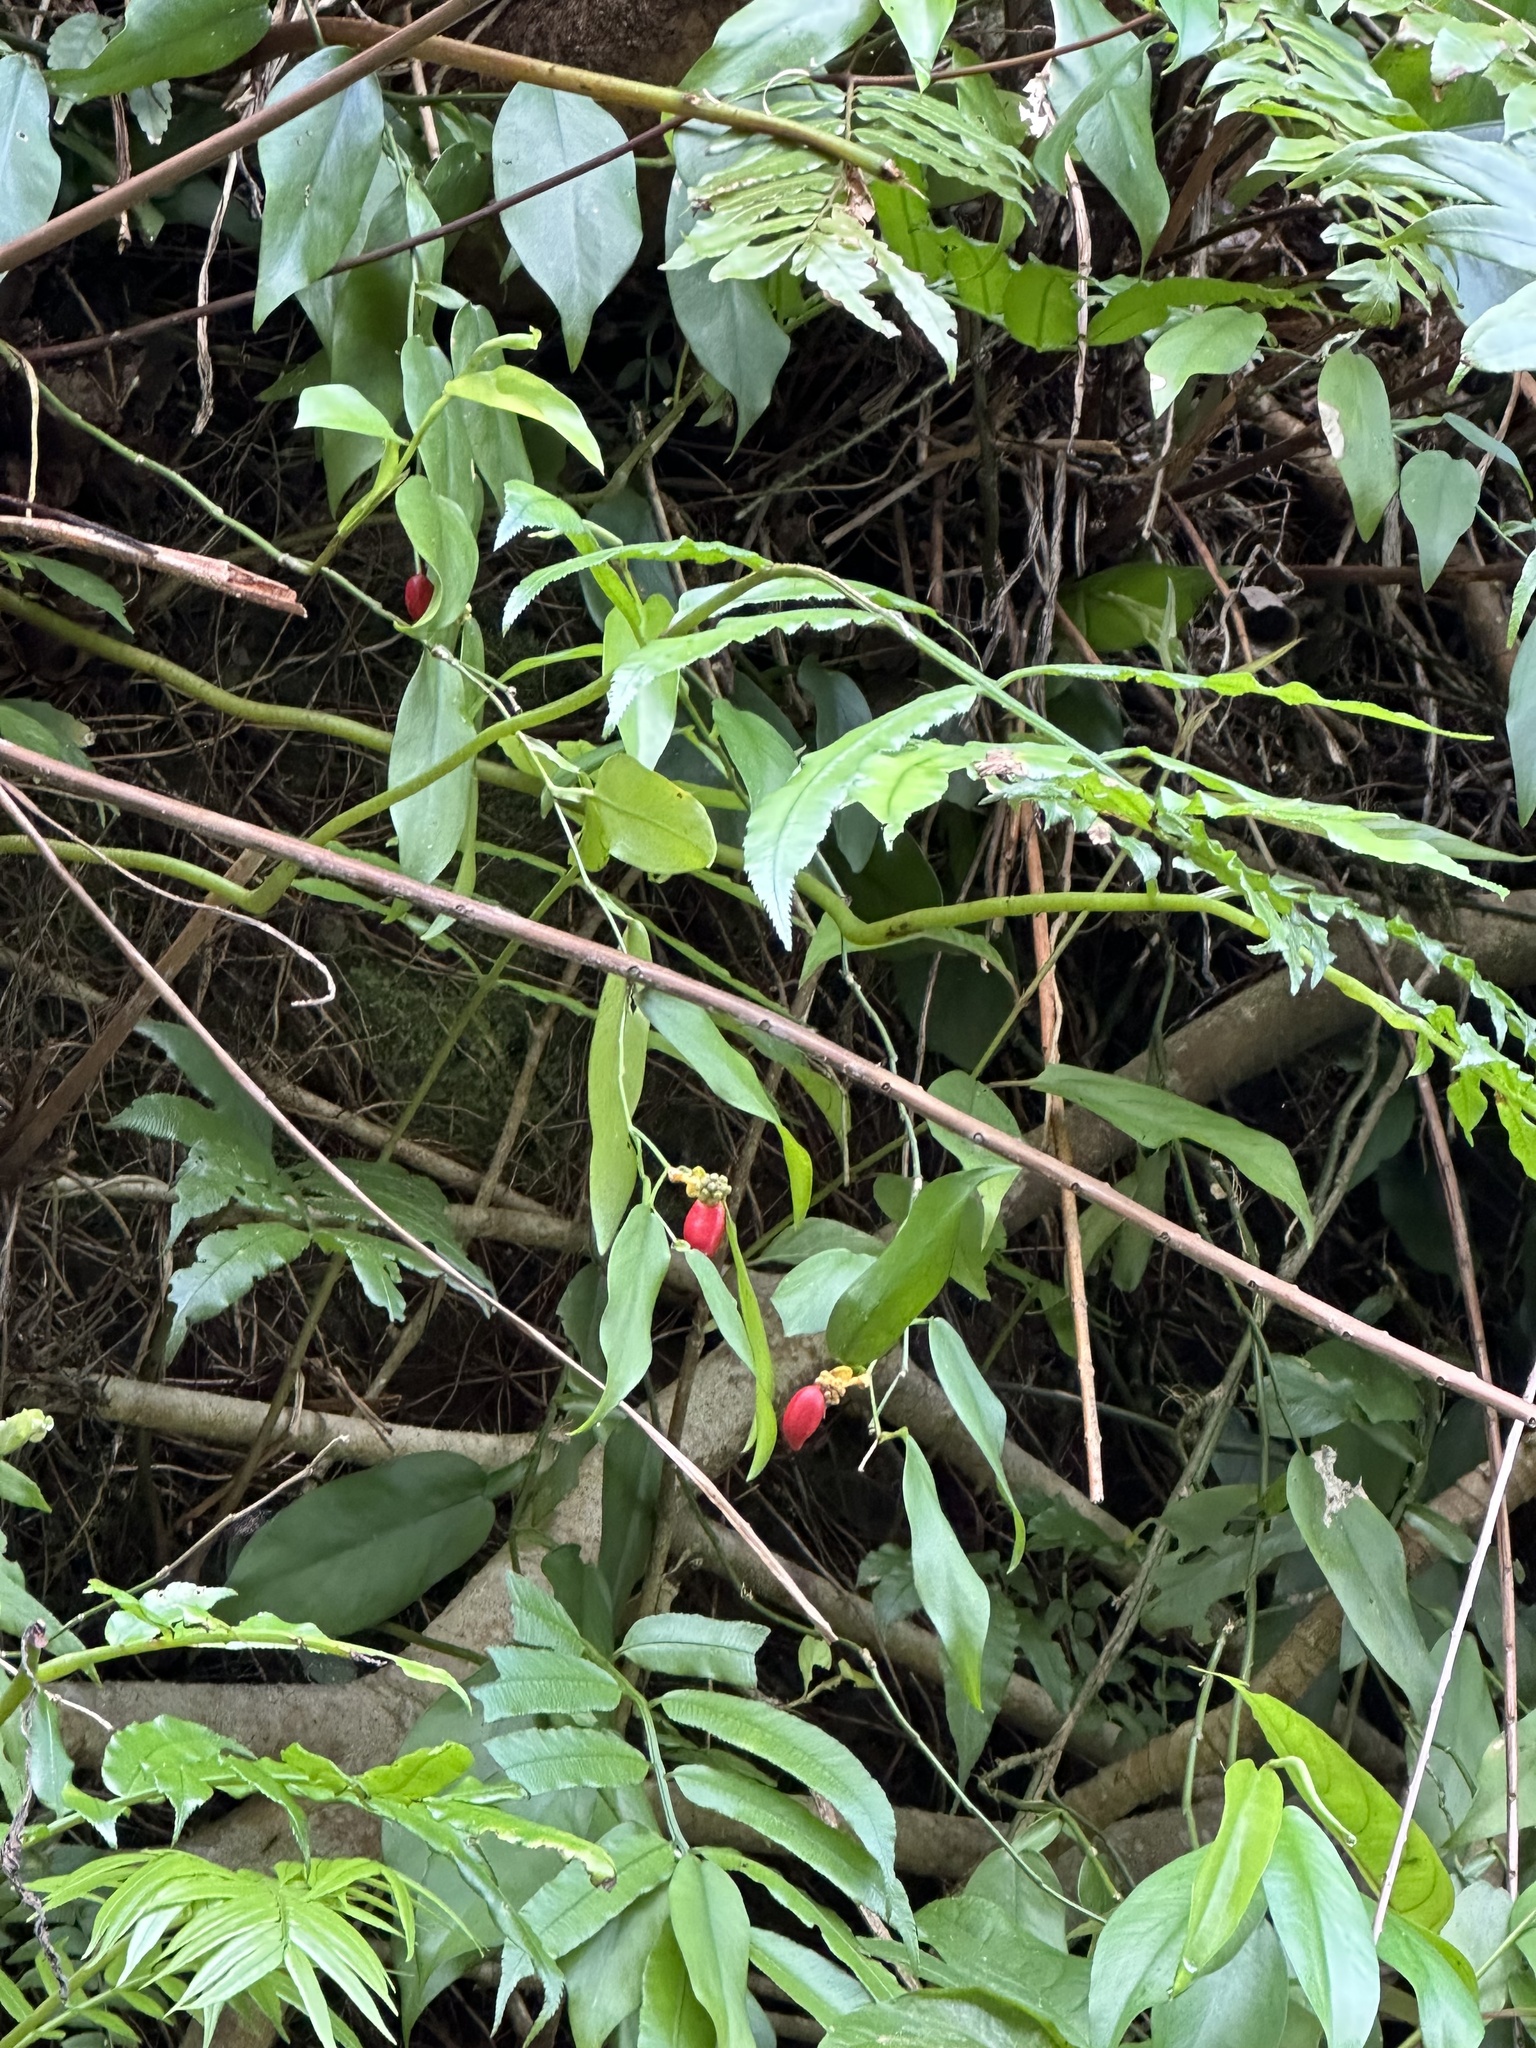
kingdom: Plantae
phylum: Tracheophyta
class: Liliopsida
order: Alismatales
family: Araceae
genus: Pothos
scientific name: Pothos chinensis
